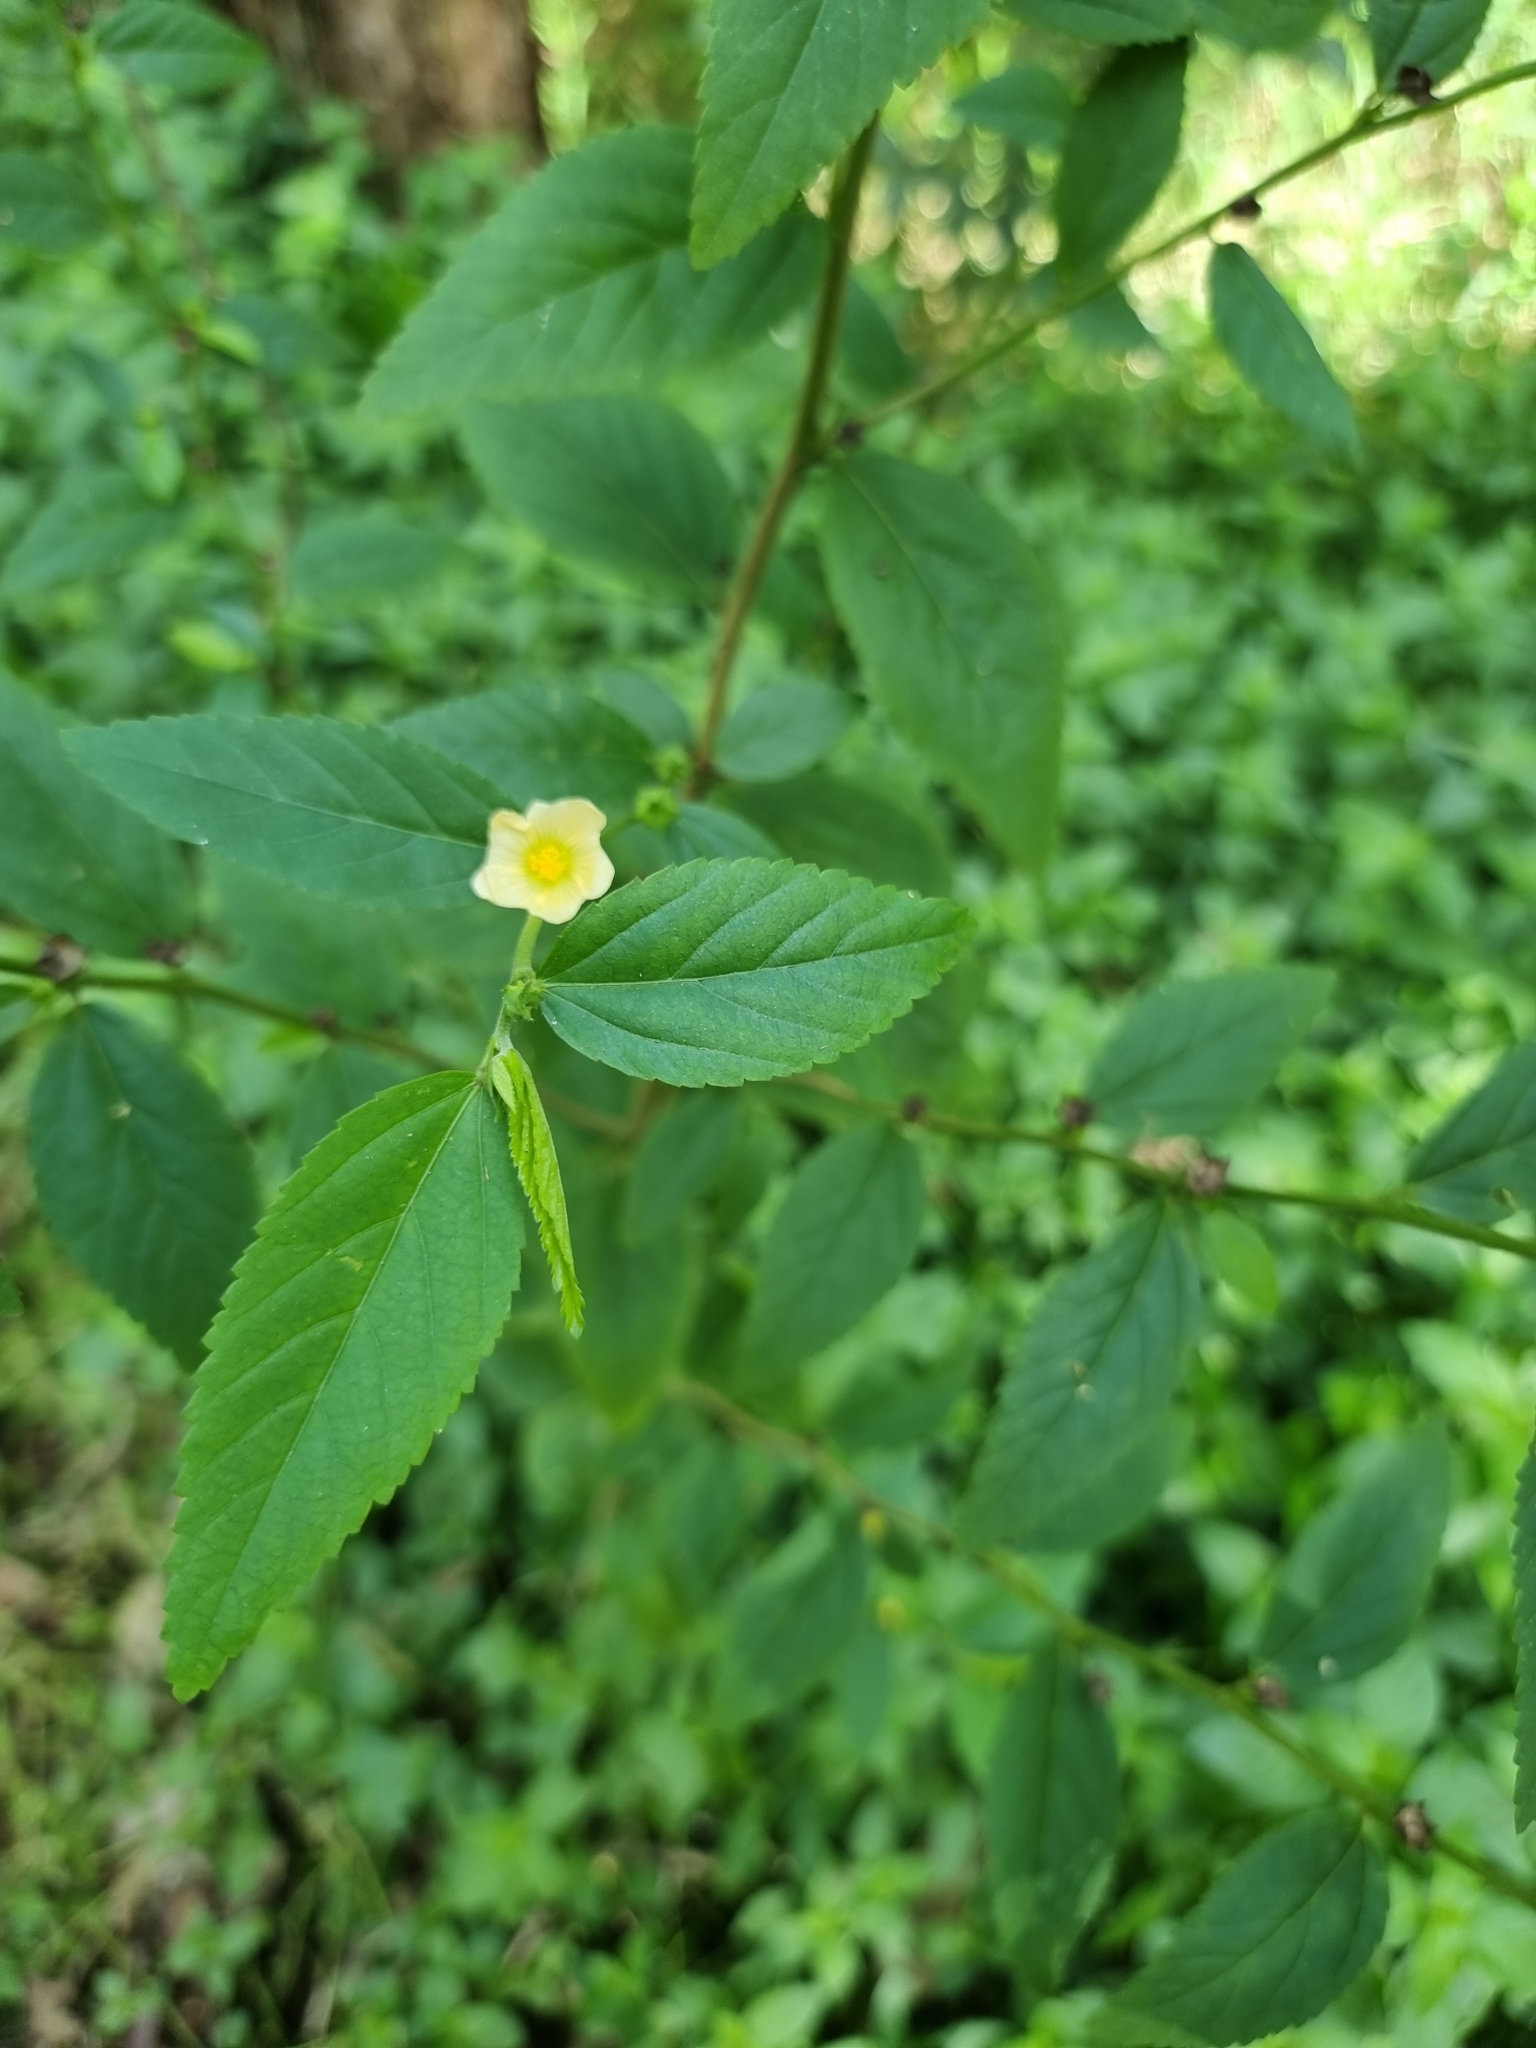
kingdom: Plantae
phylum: Tracheophyta
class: Magnoliopsida
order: Malvales
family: Malvaceae
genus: Sida
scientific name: Sida rhombifolia
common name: Queensland-hemp
